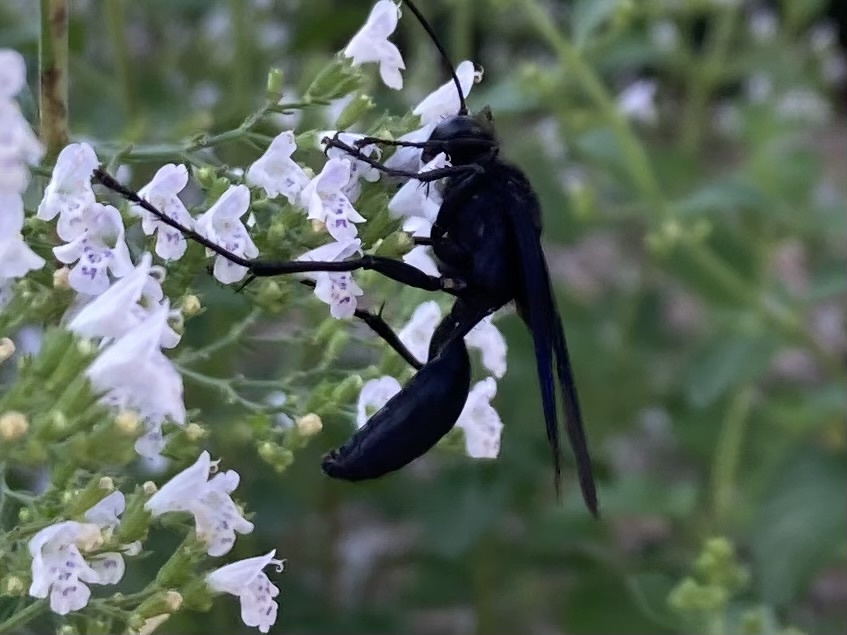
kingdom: Animalia
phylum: Arthropoda
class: Insecta
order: Hymenoptera
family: Sphecidae
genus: Sphex
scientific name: Sphex pensylvanicus
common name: Great black digger wasp
